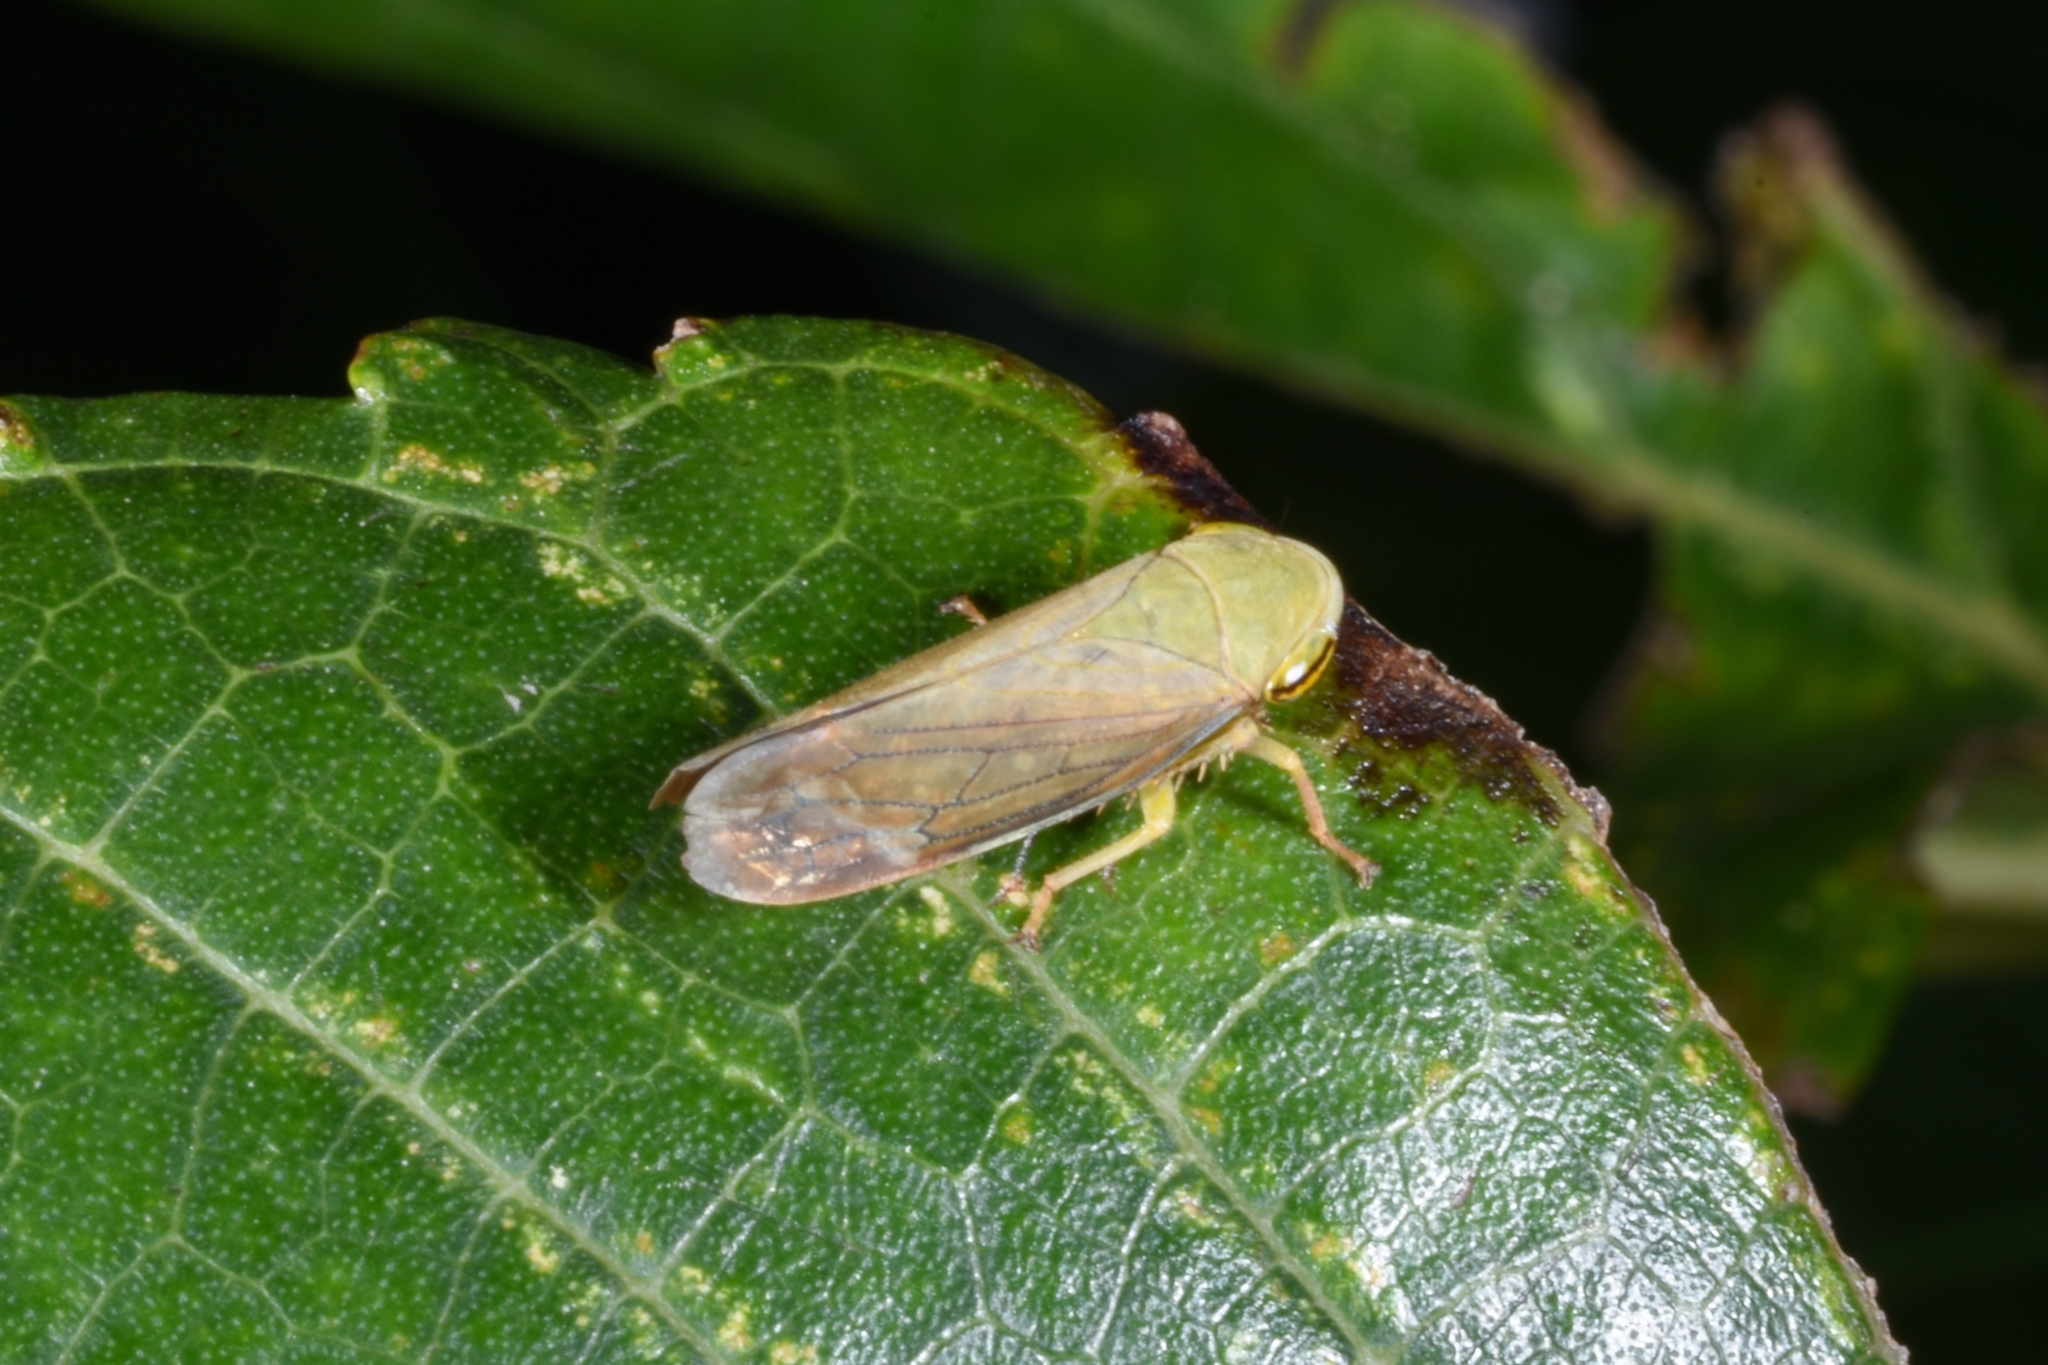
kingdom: Animalia
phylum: Arthropoda
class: Insecta
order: Hemiptera
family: Cicadellidae
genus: Tartessus
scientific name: Tartessus ferrugineus
